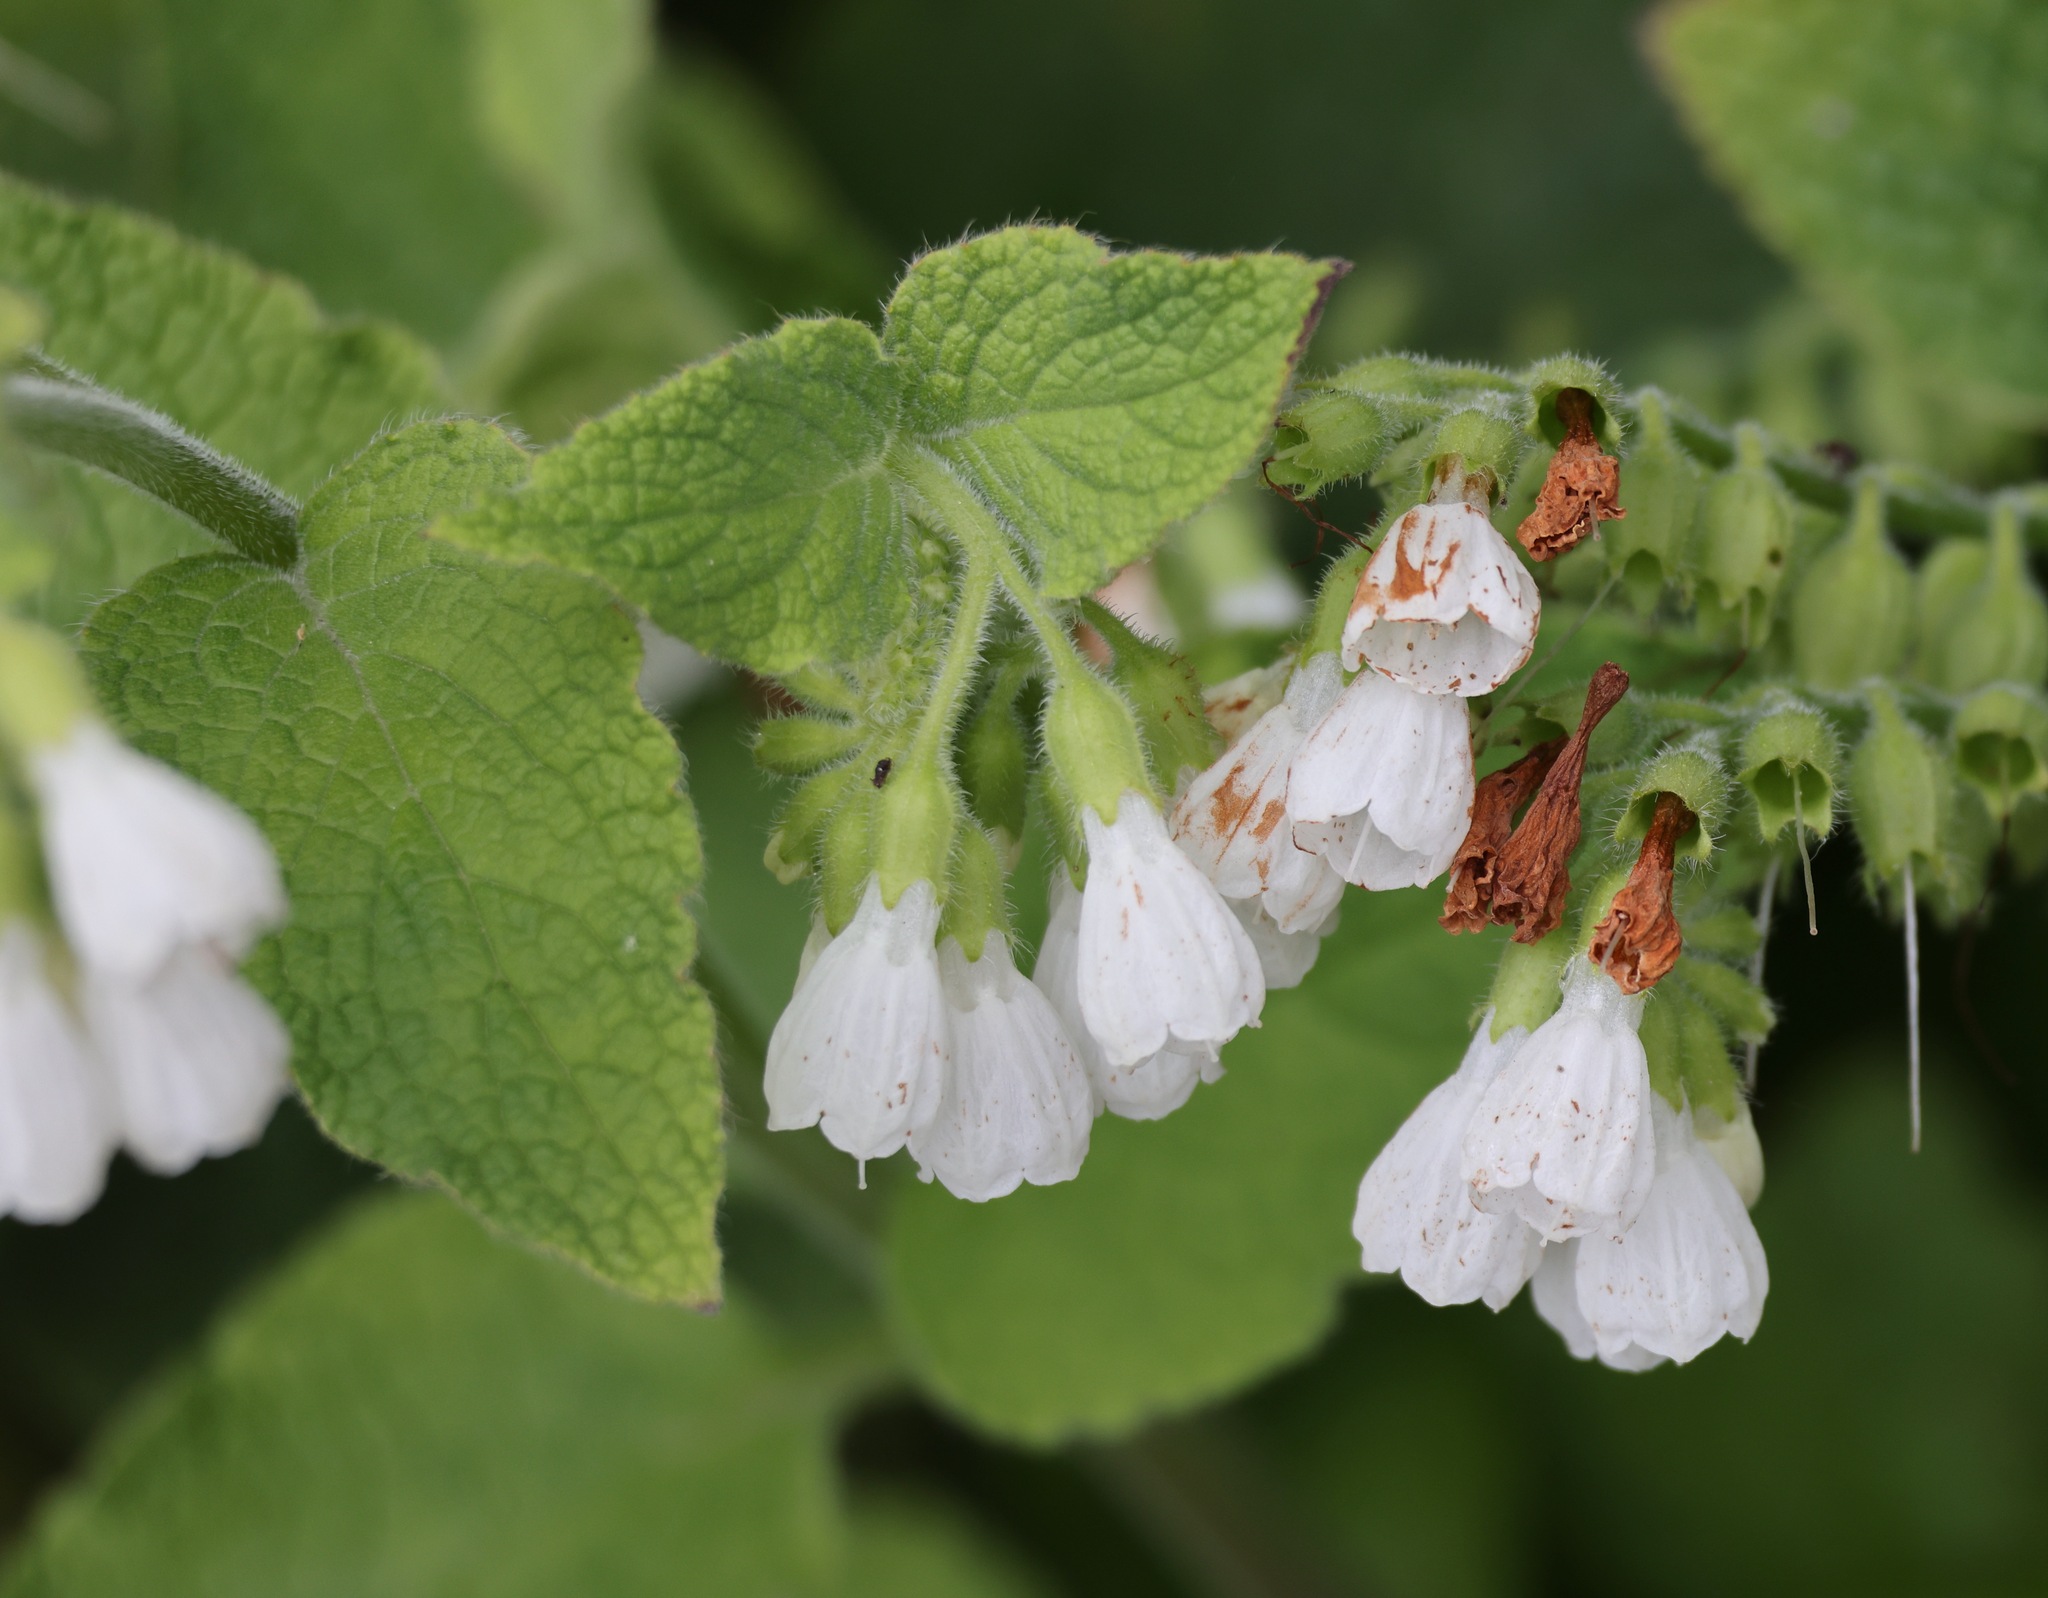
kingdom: Plantae
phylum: Tracheophyta
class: Magnoliopsida
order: Boraginales
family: Boraginaceae
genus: Symphytum
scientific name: Symphytum orientale
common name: White comfrey
